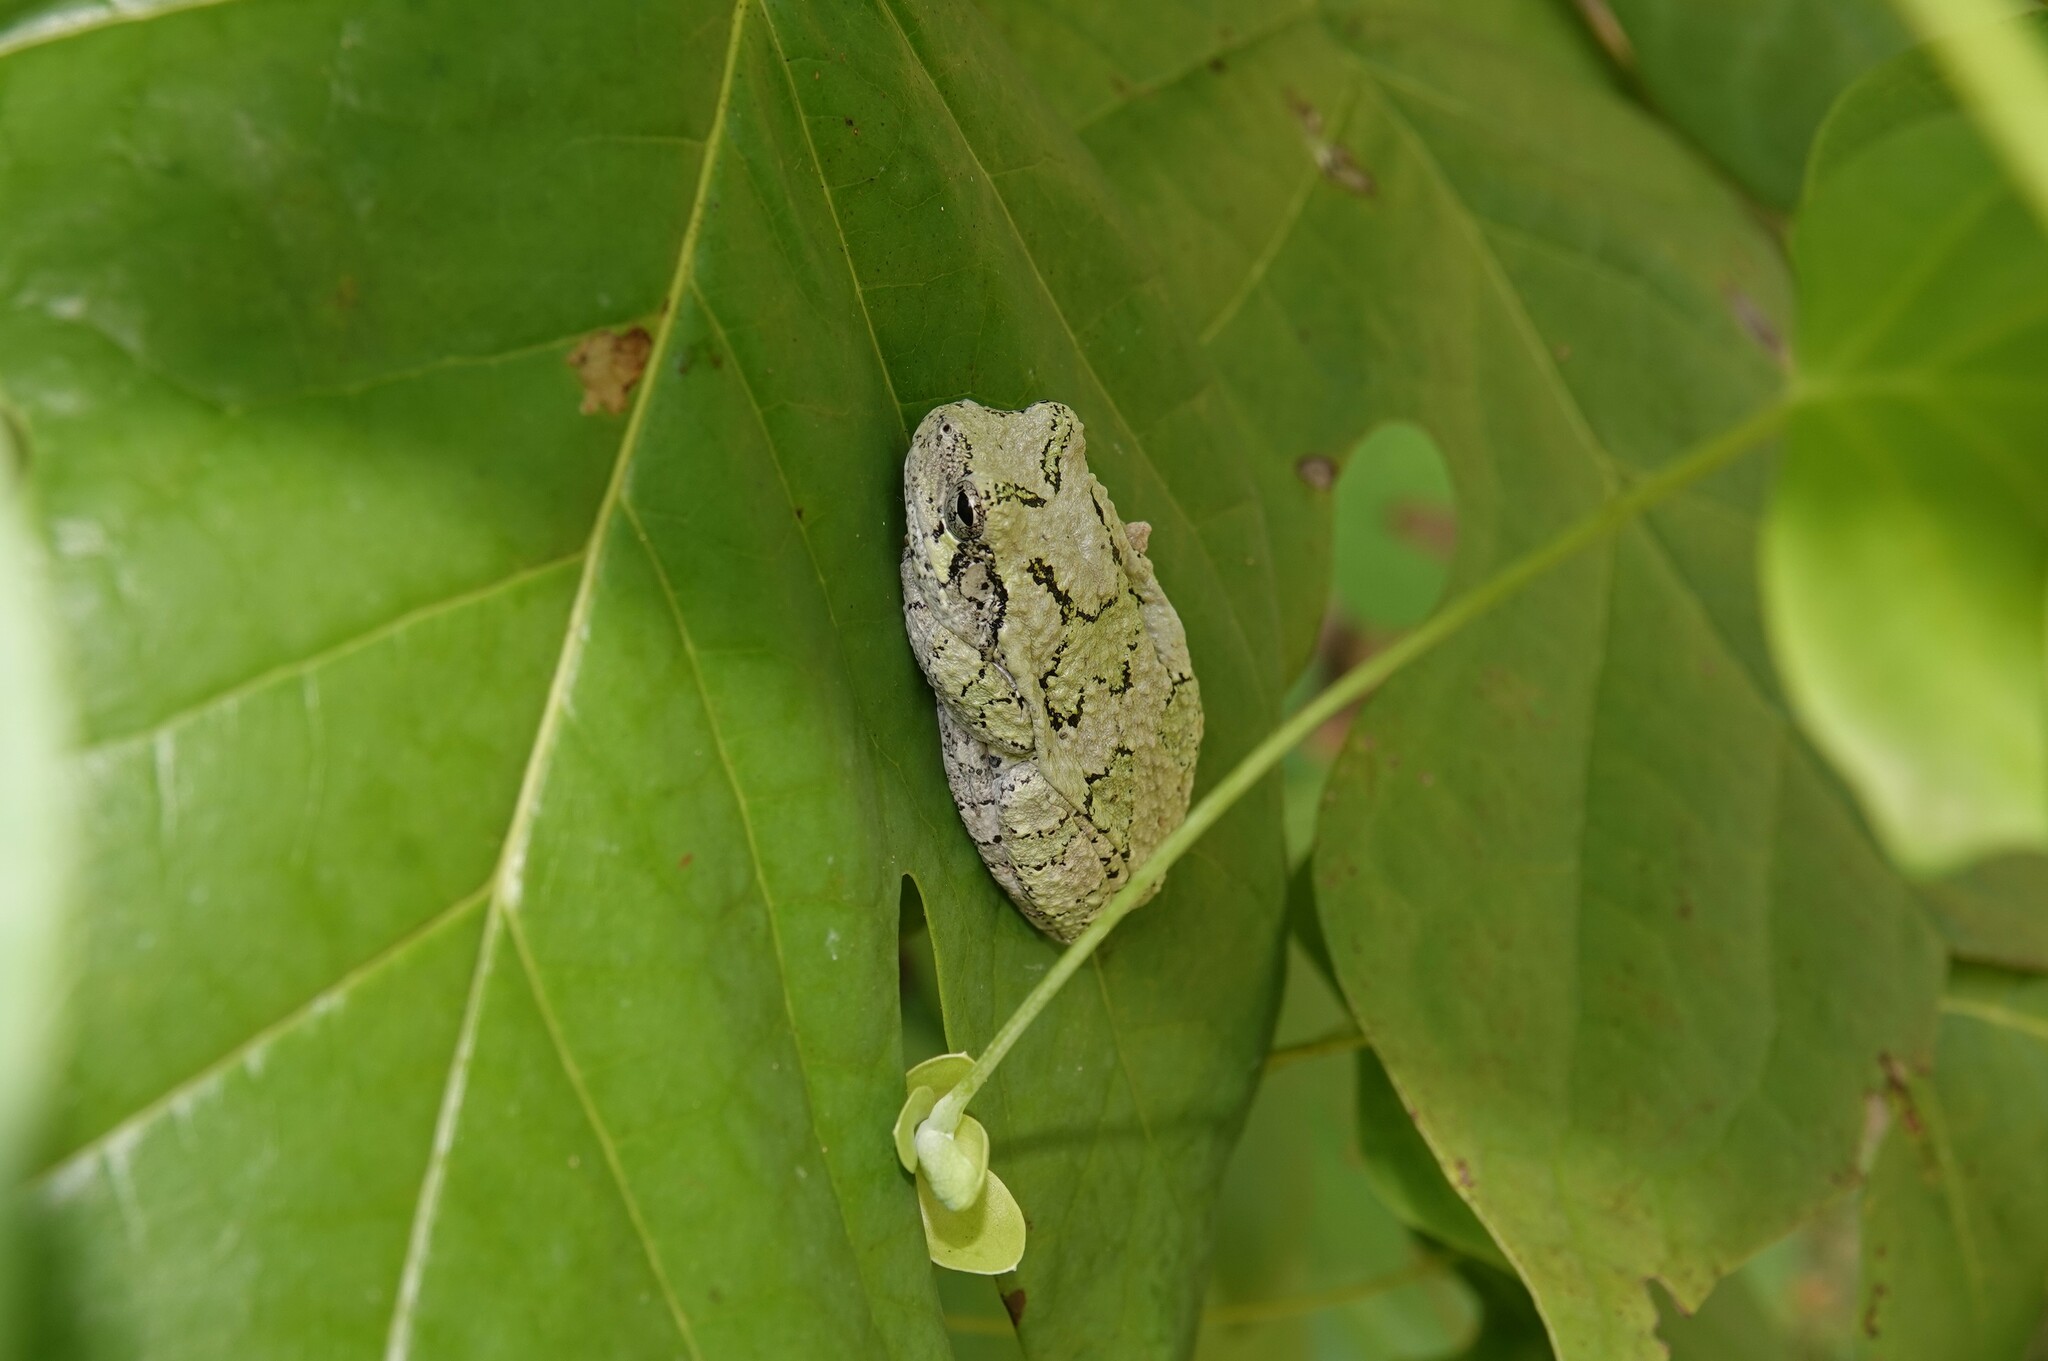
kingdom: Animalia
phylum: Chordata
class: Amphibia
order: Anura
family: Hylidae
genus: Dryophytes
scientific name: Dryophytes versicolor
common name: Gray treefrog
